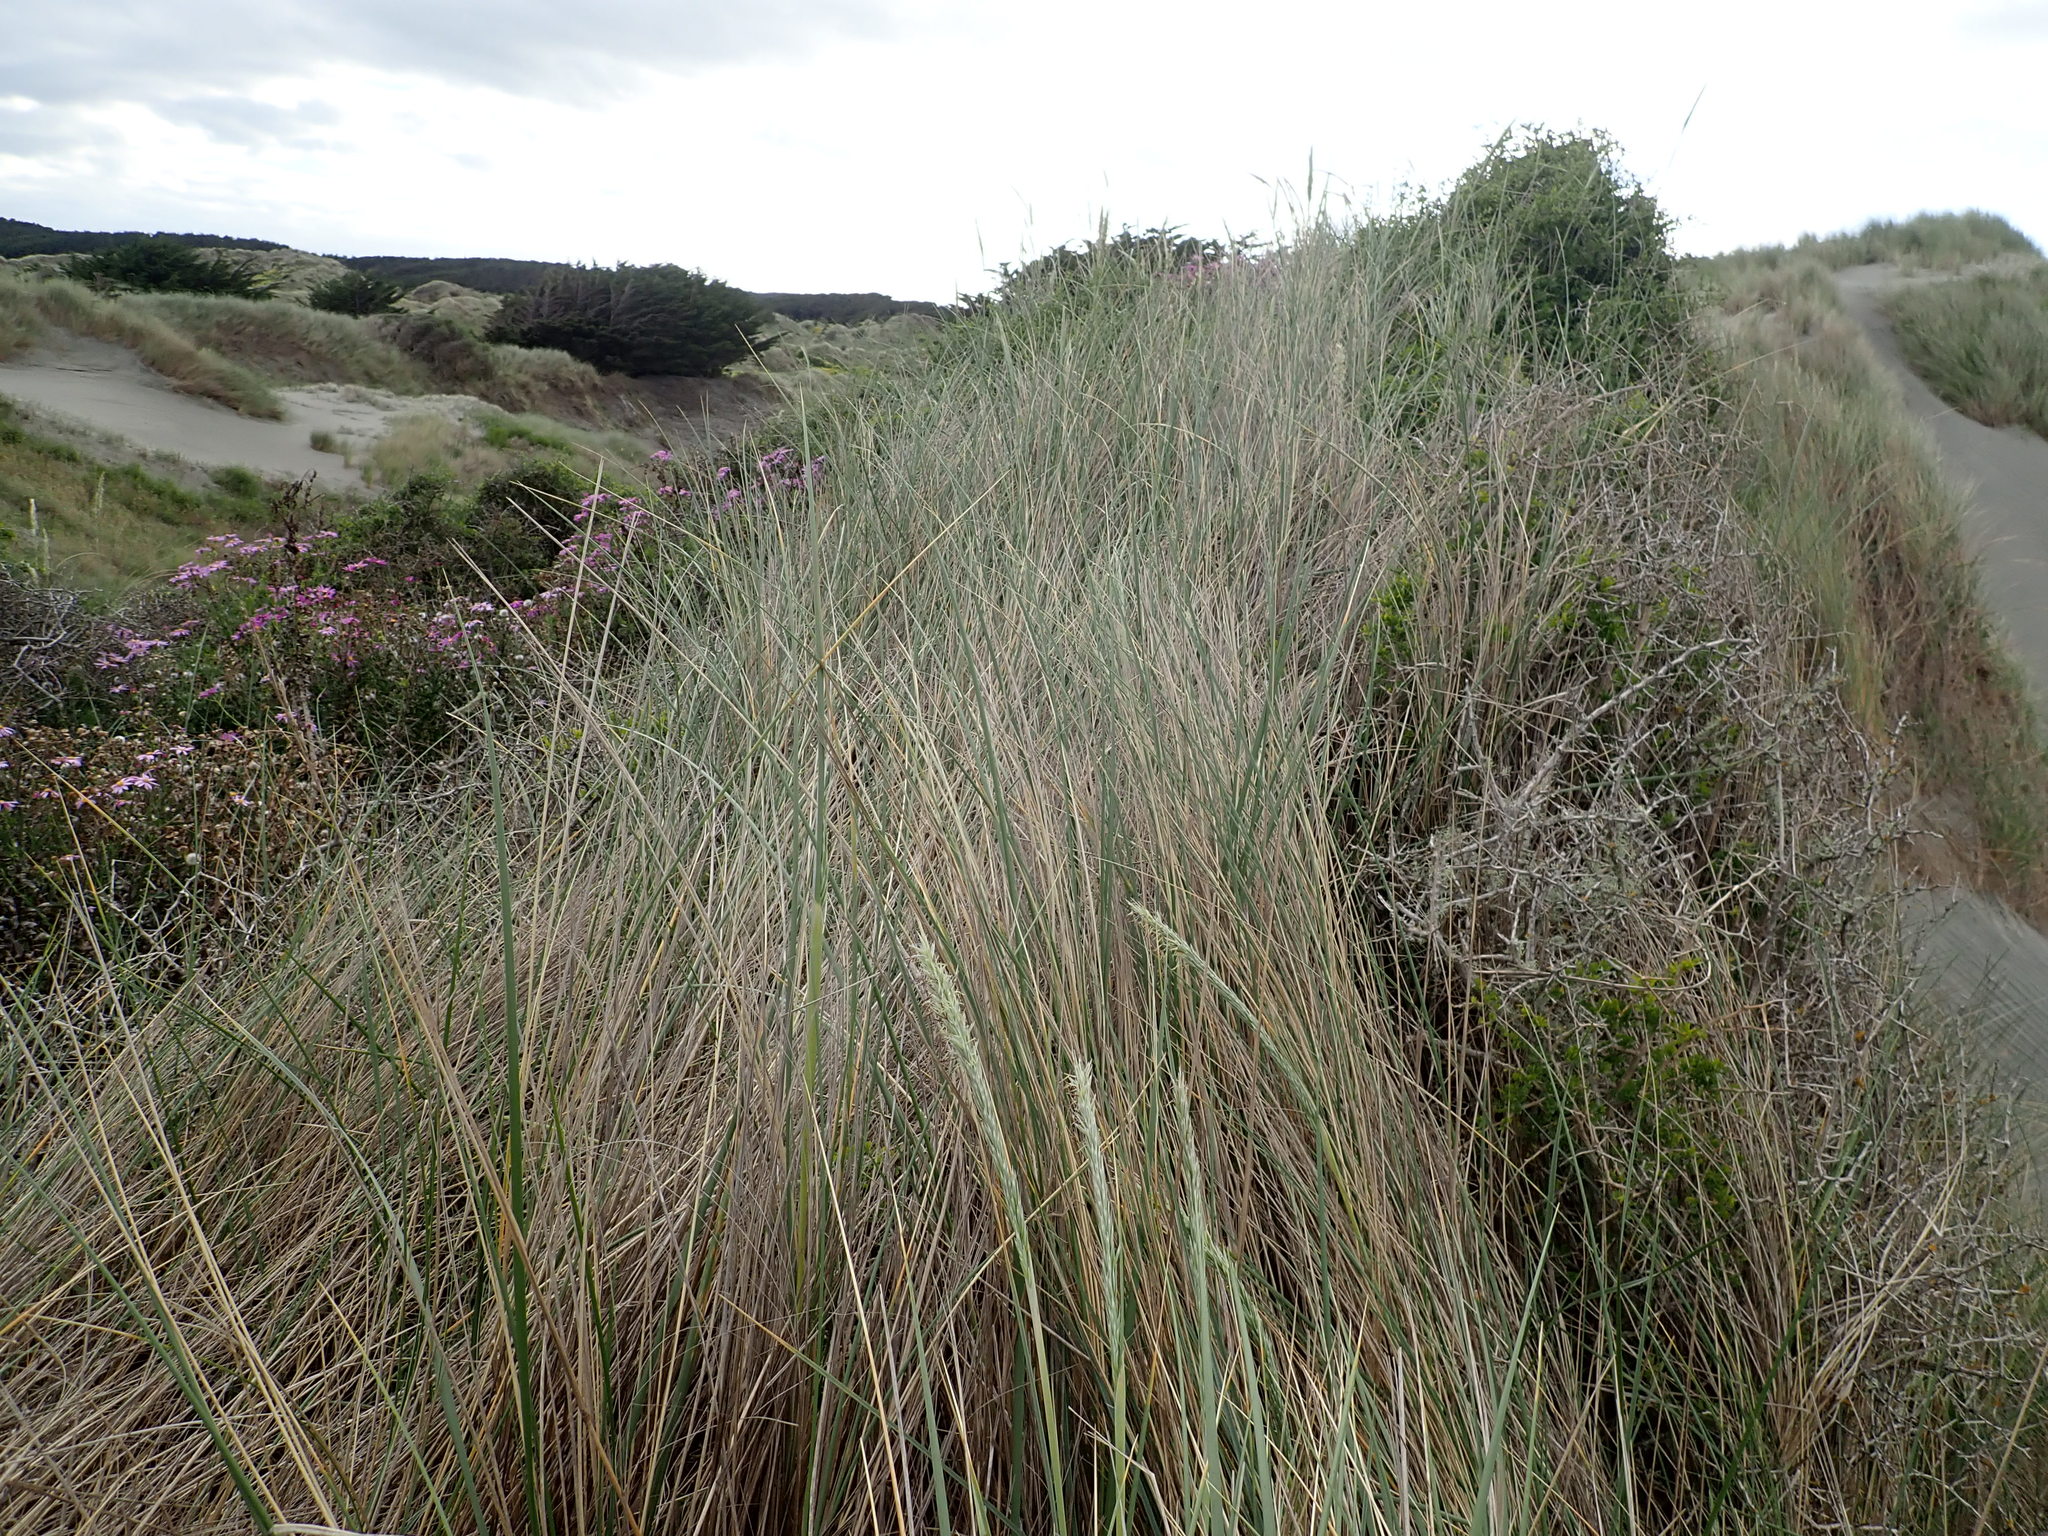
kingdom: Plantae
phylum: Tracheophyta
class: Magnoliopsida
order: Solanales
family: Solanaceae
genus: Lycium
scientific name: Lycium ferocissimum
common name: African boxthorn
